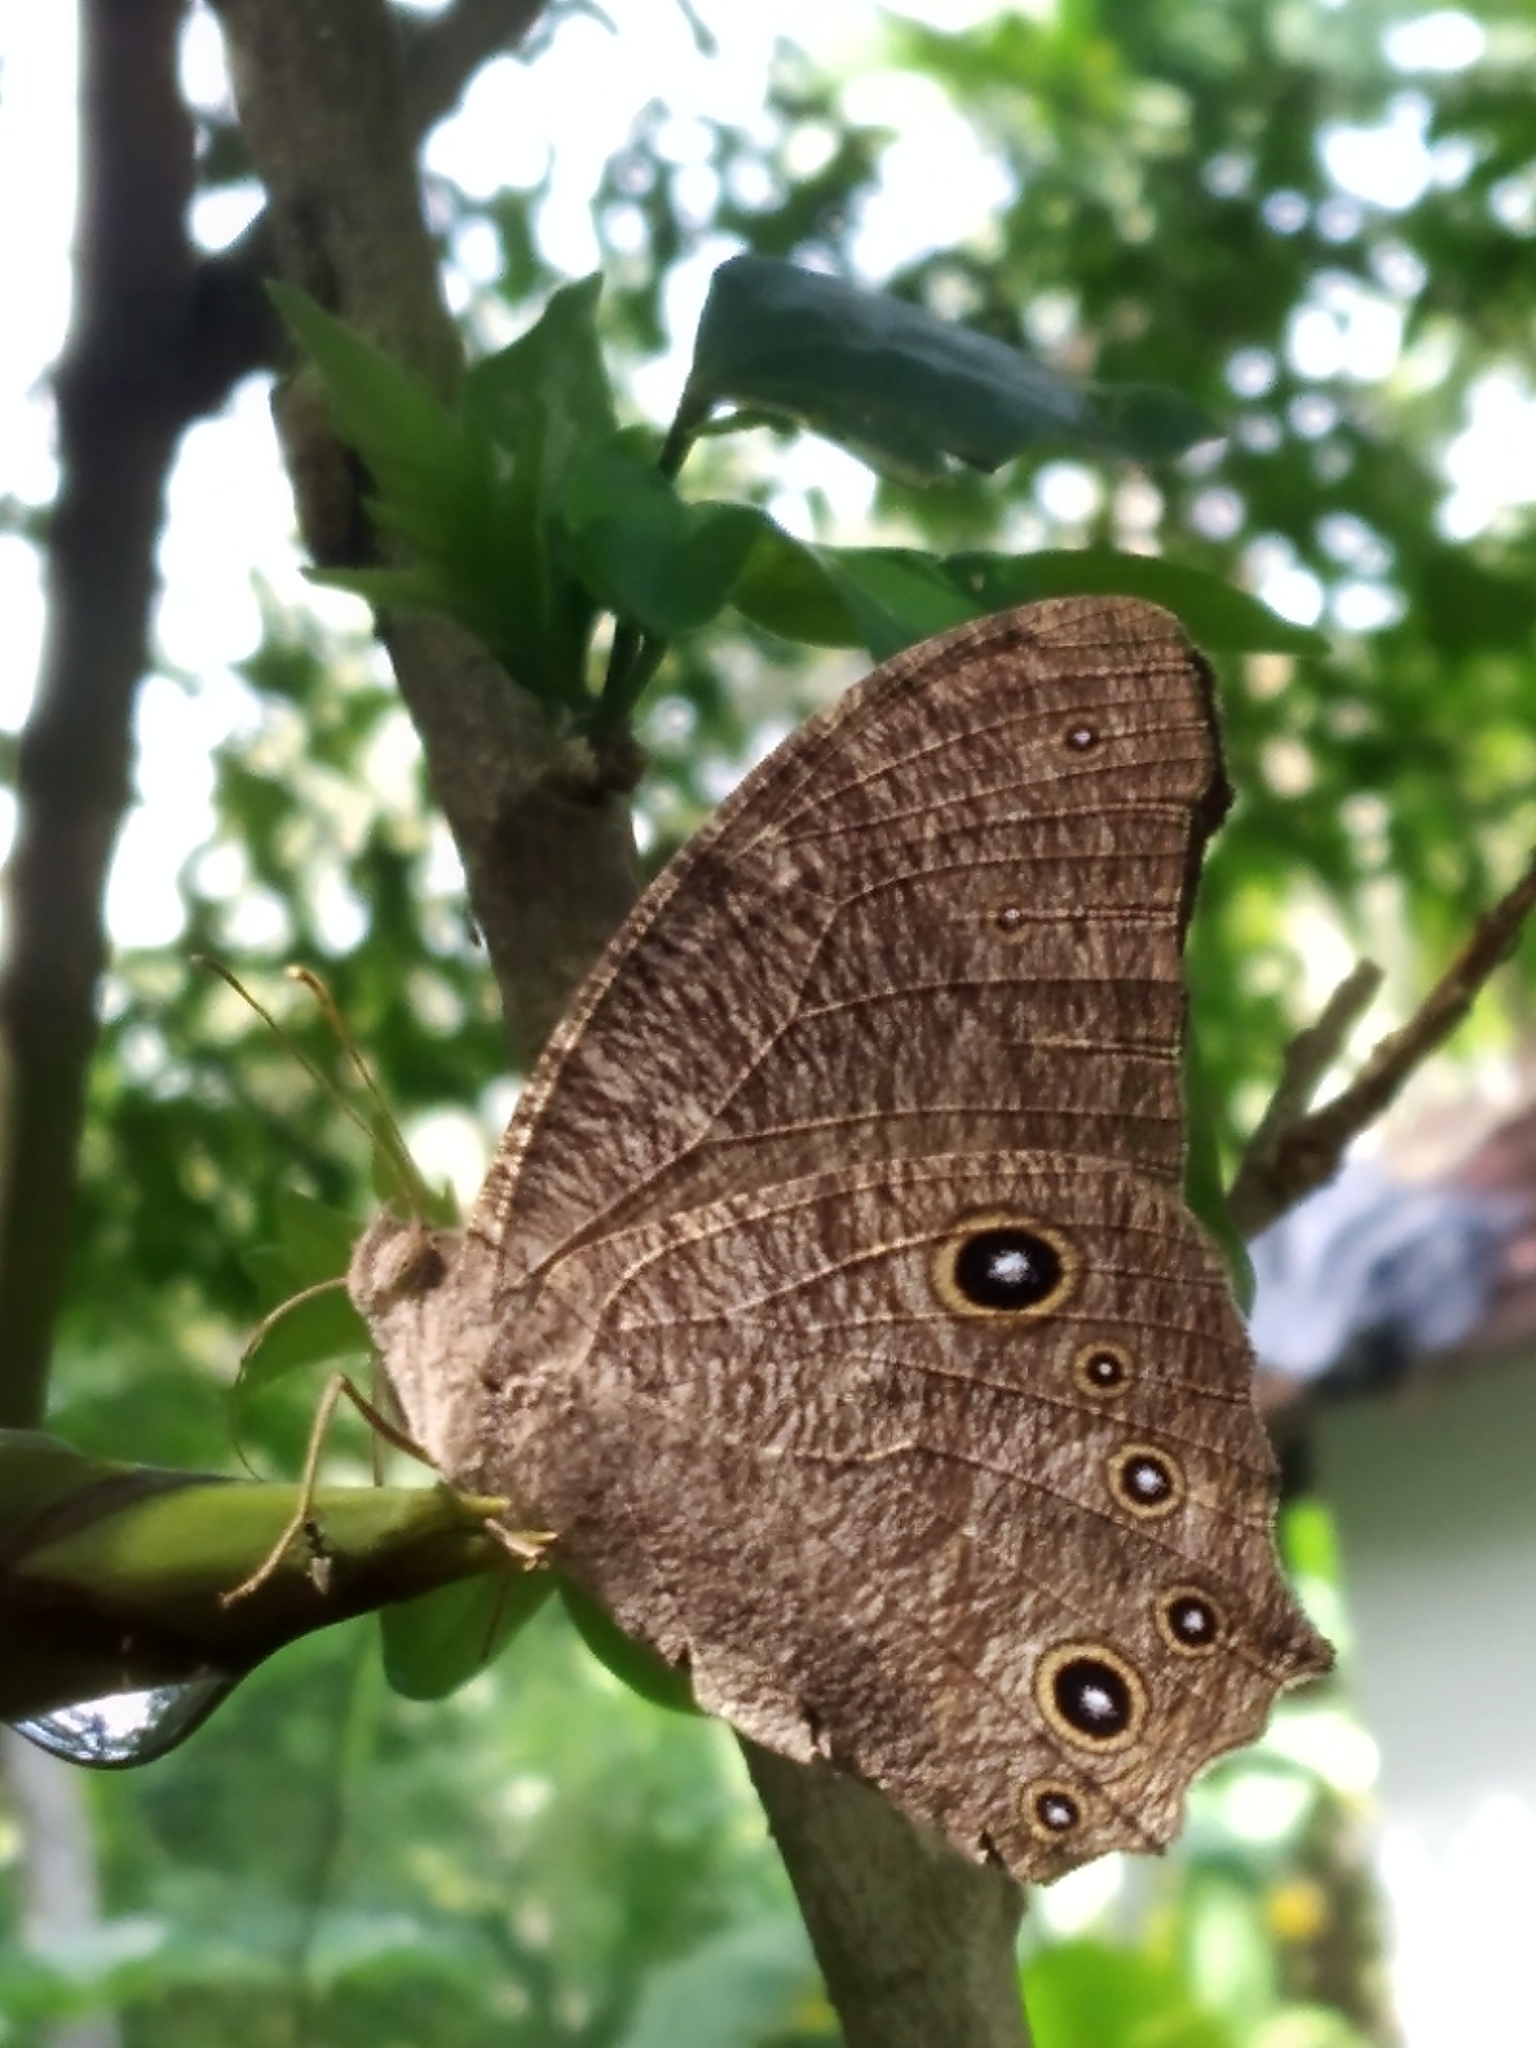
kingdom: Animalia
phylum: Arthropoda
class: Insecta
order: Lepidoptera
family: Nymphalidae
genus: Melanitis
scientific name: Melanitis leda
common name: Twilight brown
